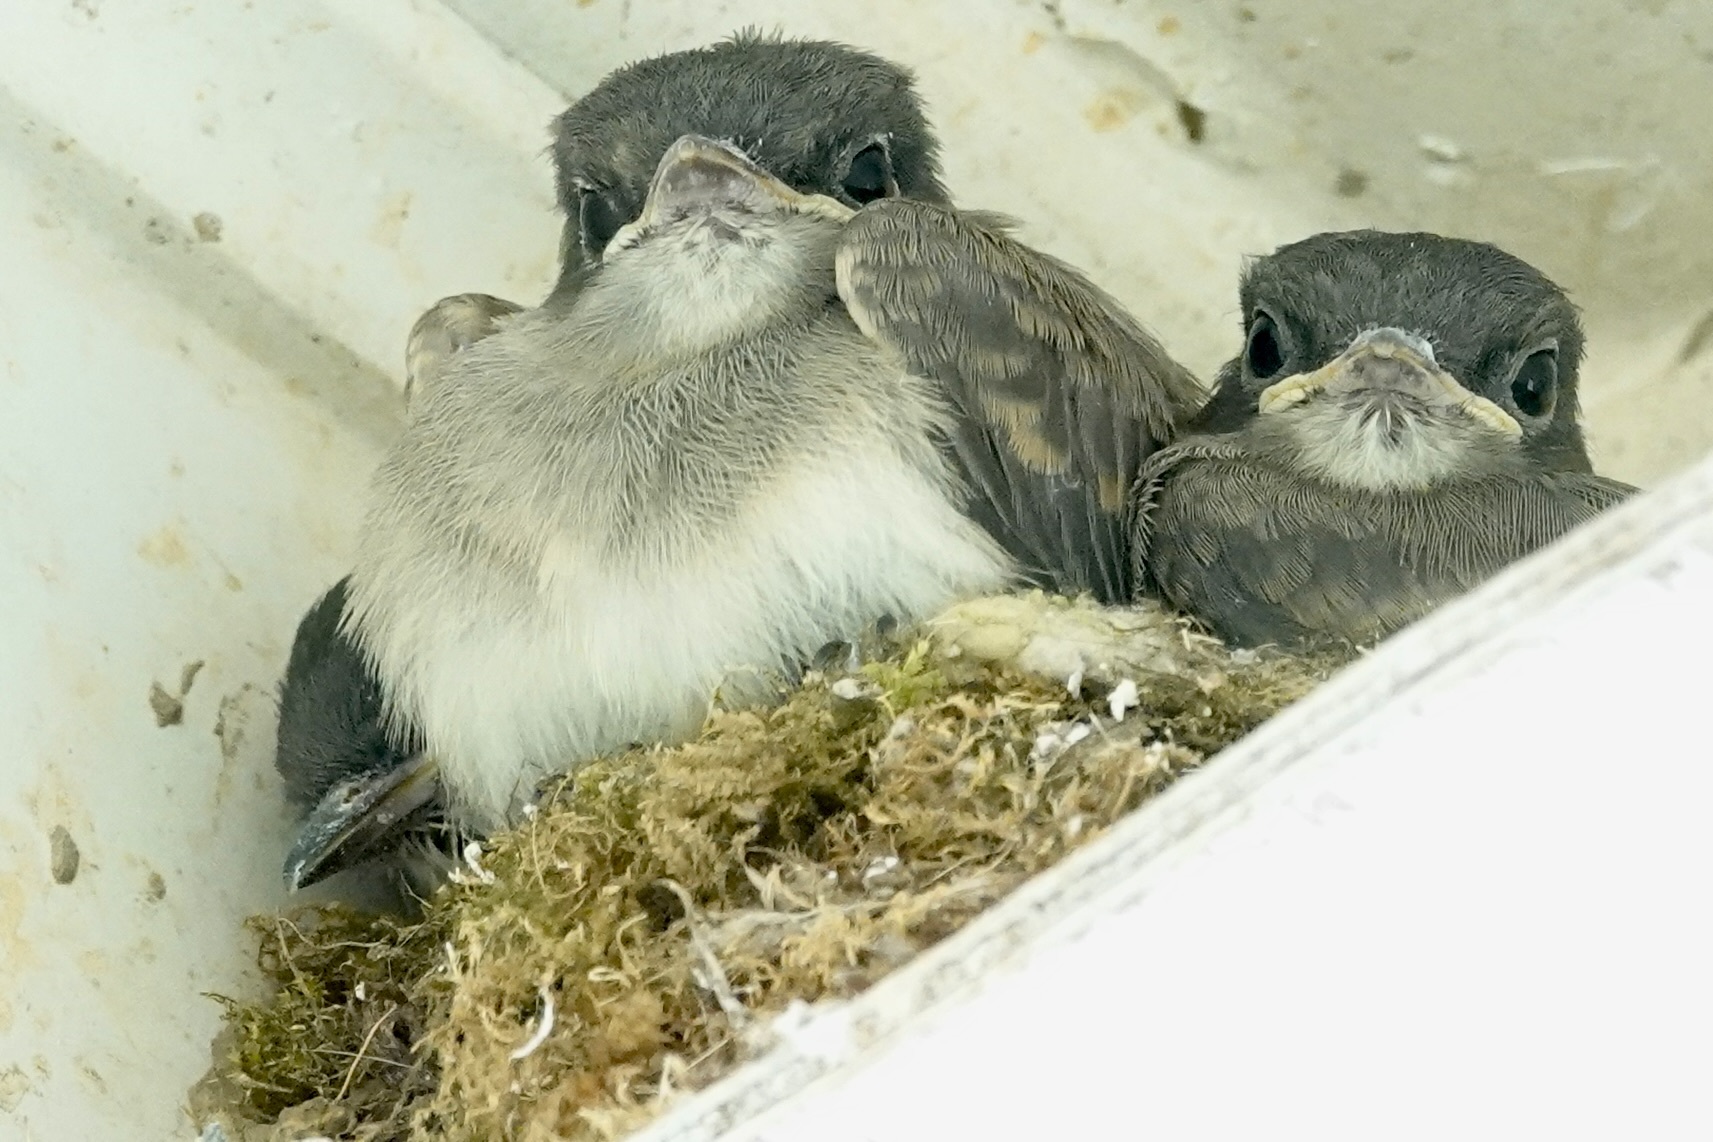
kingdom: Animalia
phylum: Chordata
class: Aves
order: Passeriformes
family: Tyrannidae
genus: Sayornis
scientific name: Sayornis phoebe
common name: Eastern phoebe
